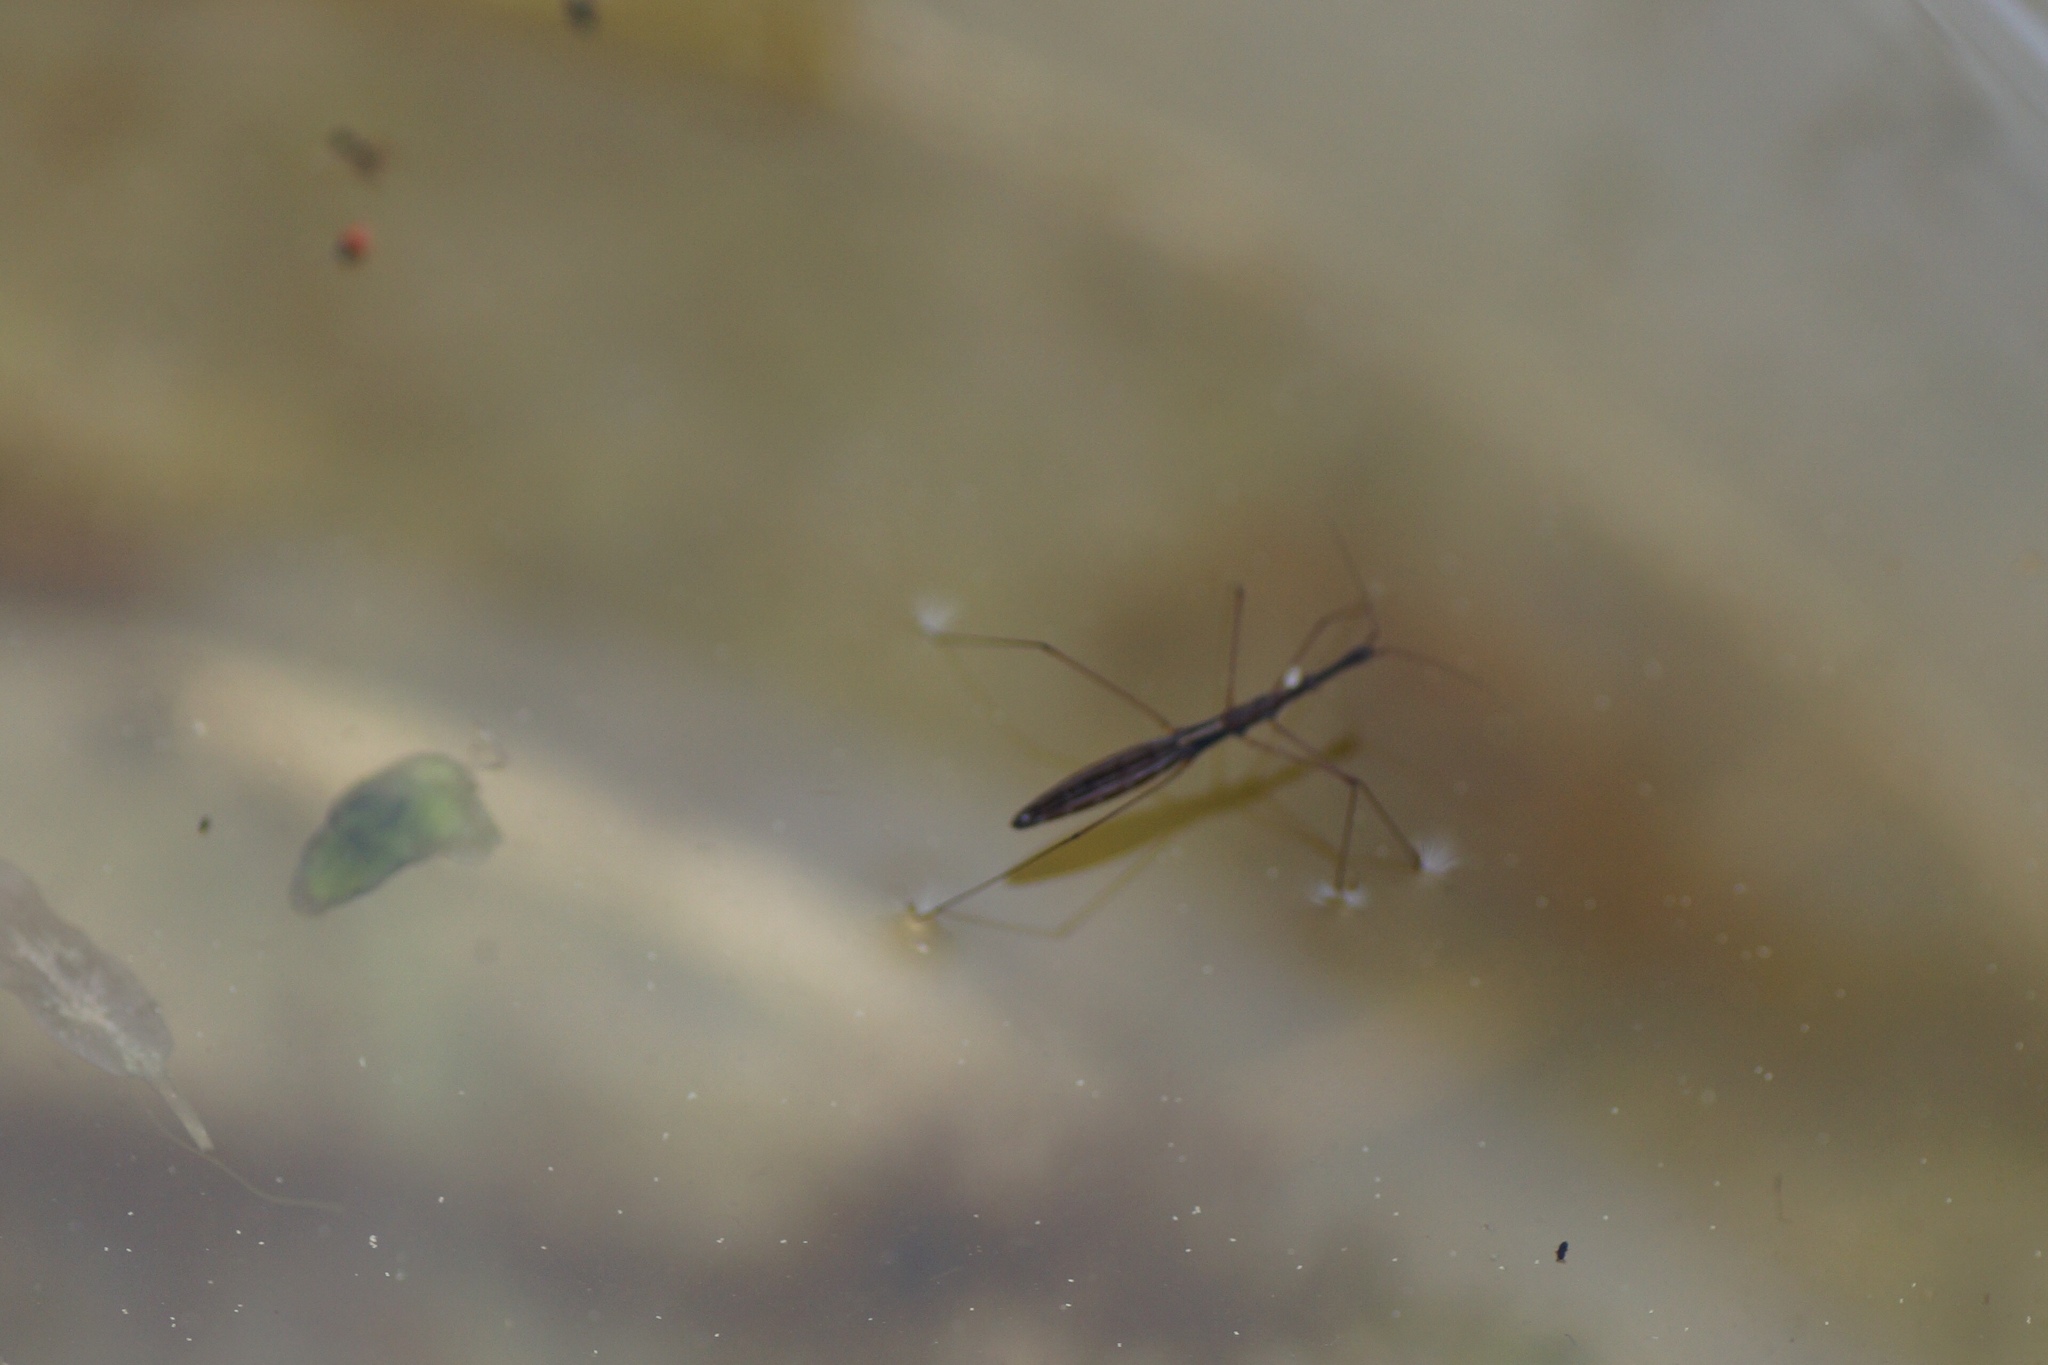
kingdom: Animalia
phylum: Arthropoda
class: Insecta
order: Hemiptera
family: Hydrometridae
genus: Hydrometra
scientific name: Hydrometra stagnorum
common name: Water measurer
